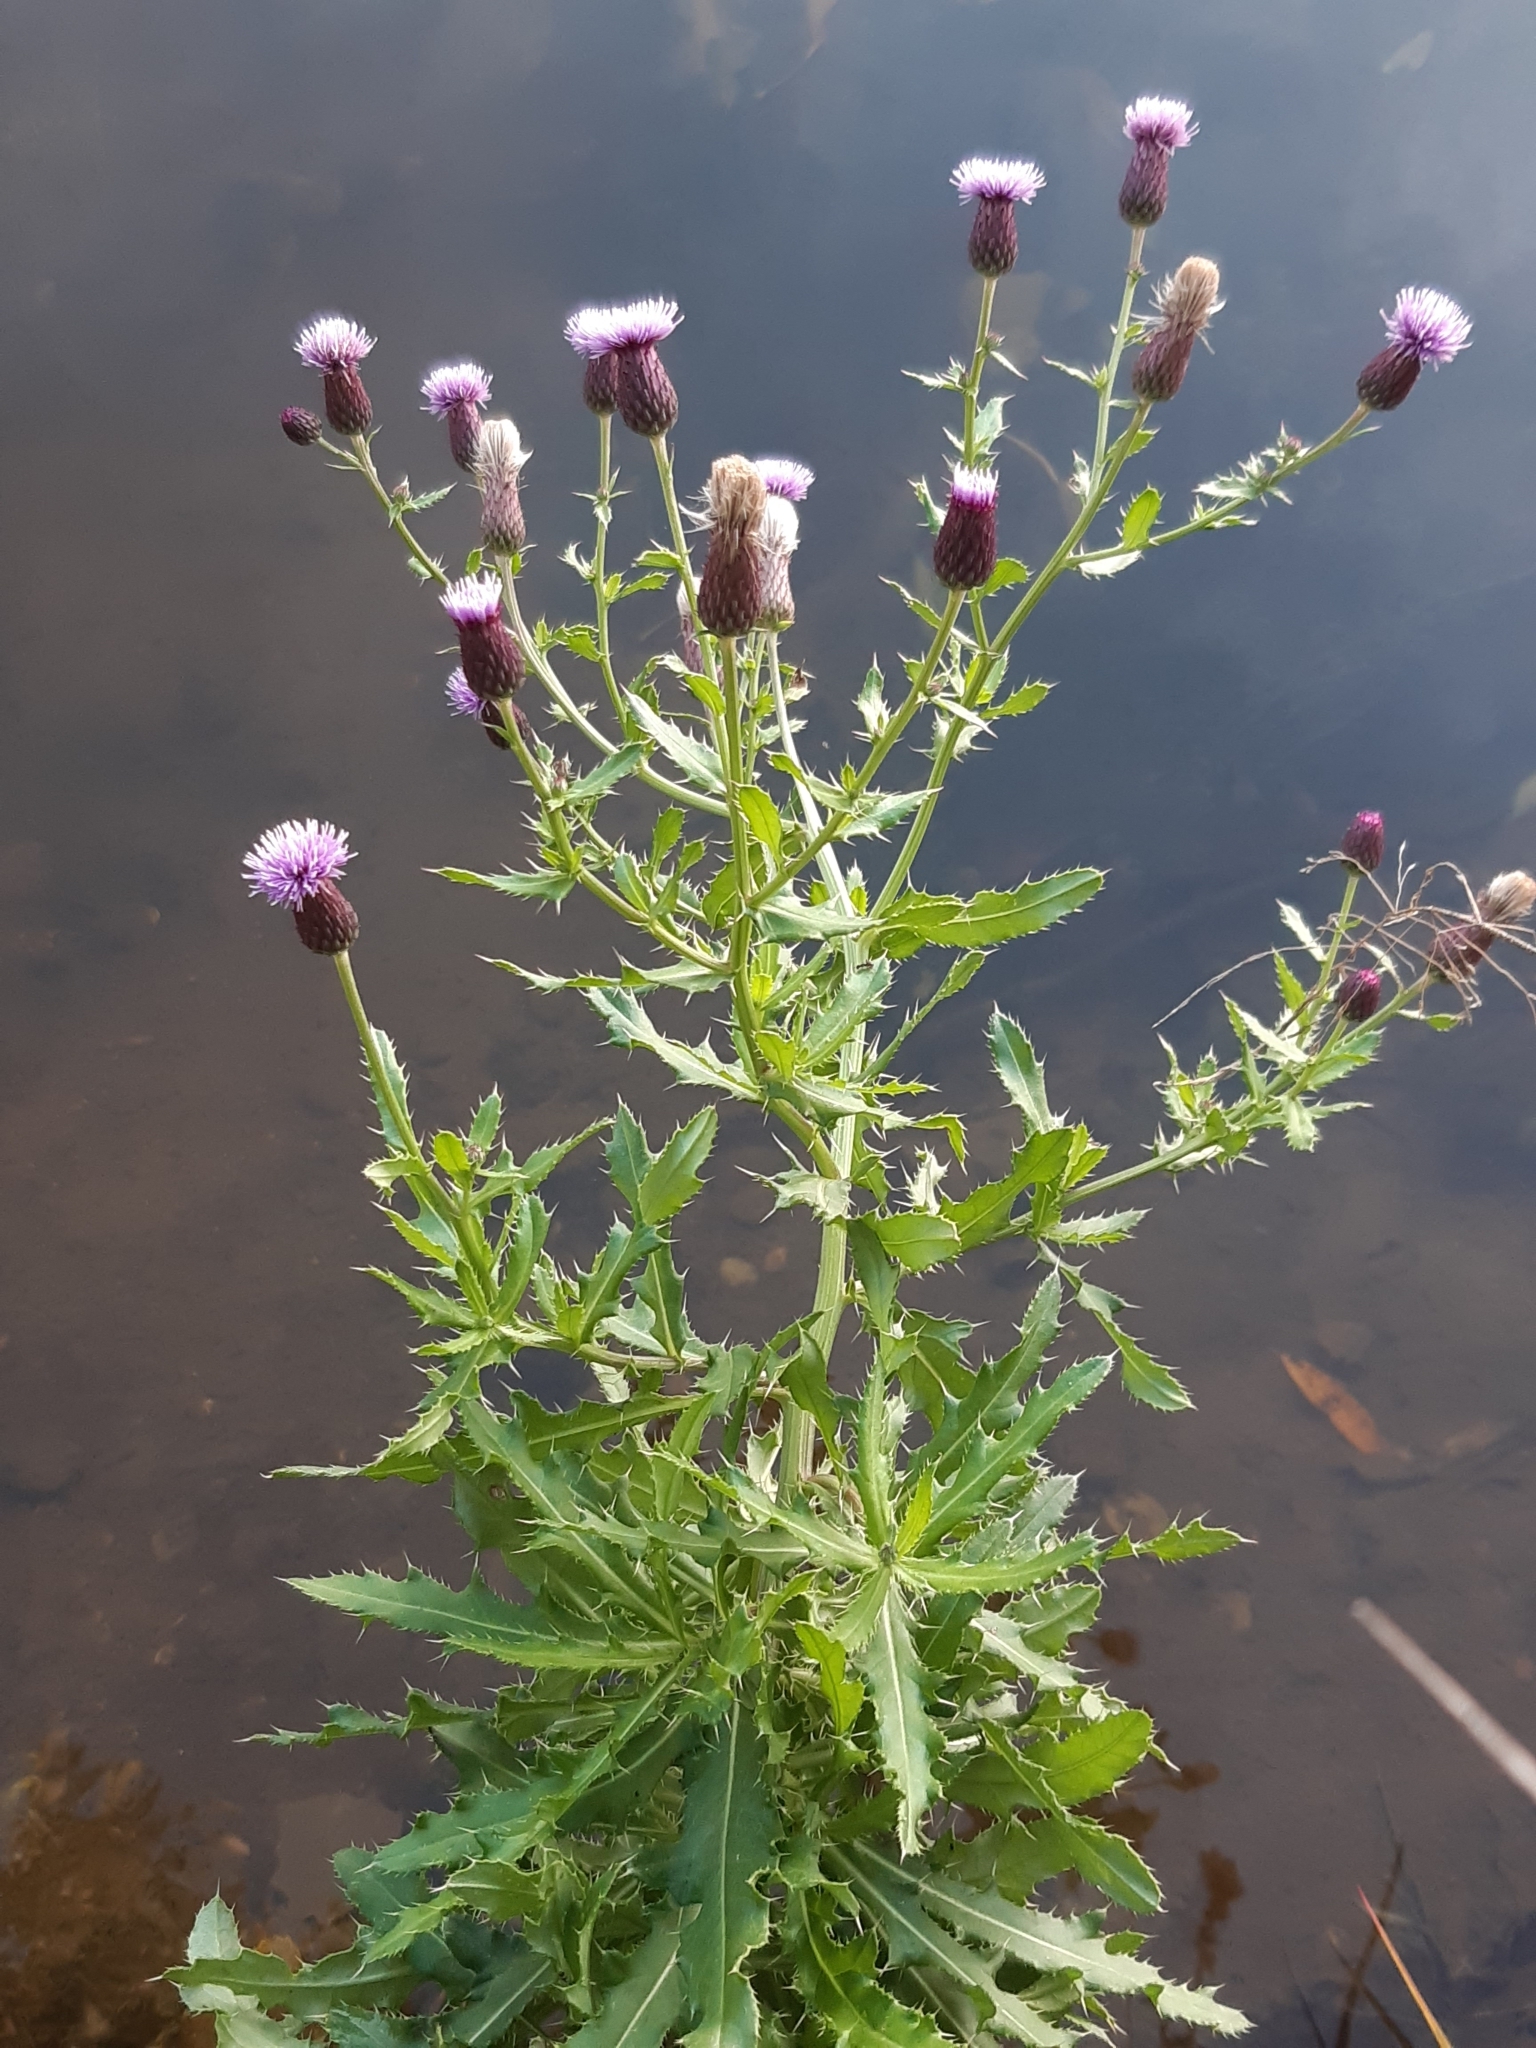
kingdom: Plantae
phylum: Tracheophyta
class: Magnoliopsida
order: Asterales
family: Asteraceae
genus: Cirsium
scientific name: Cirsium arvense
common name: Creeping thistle
